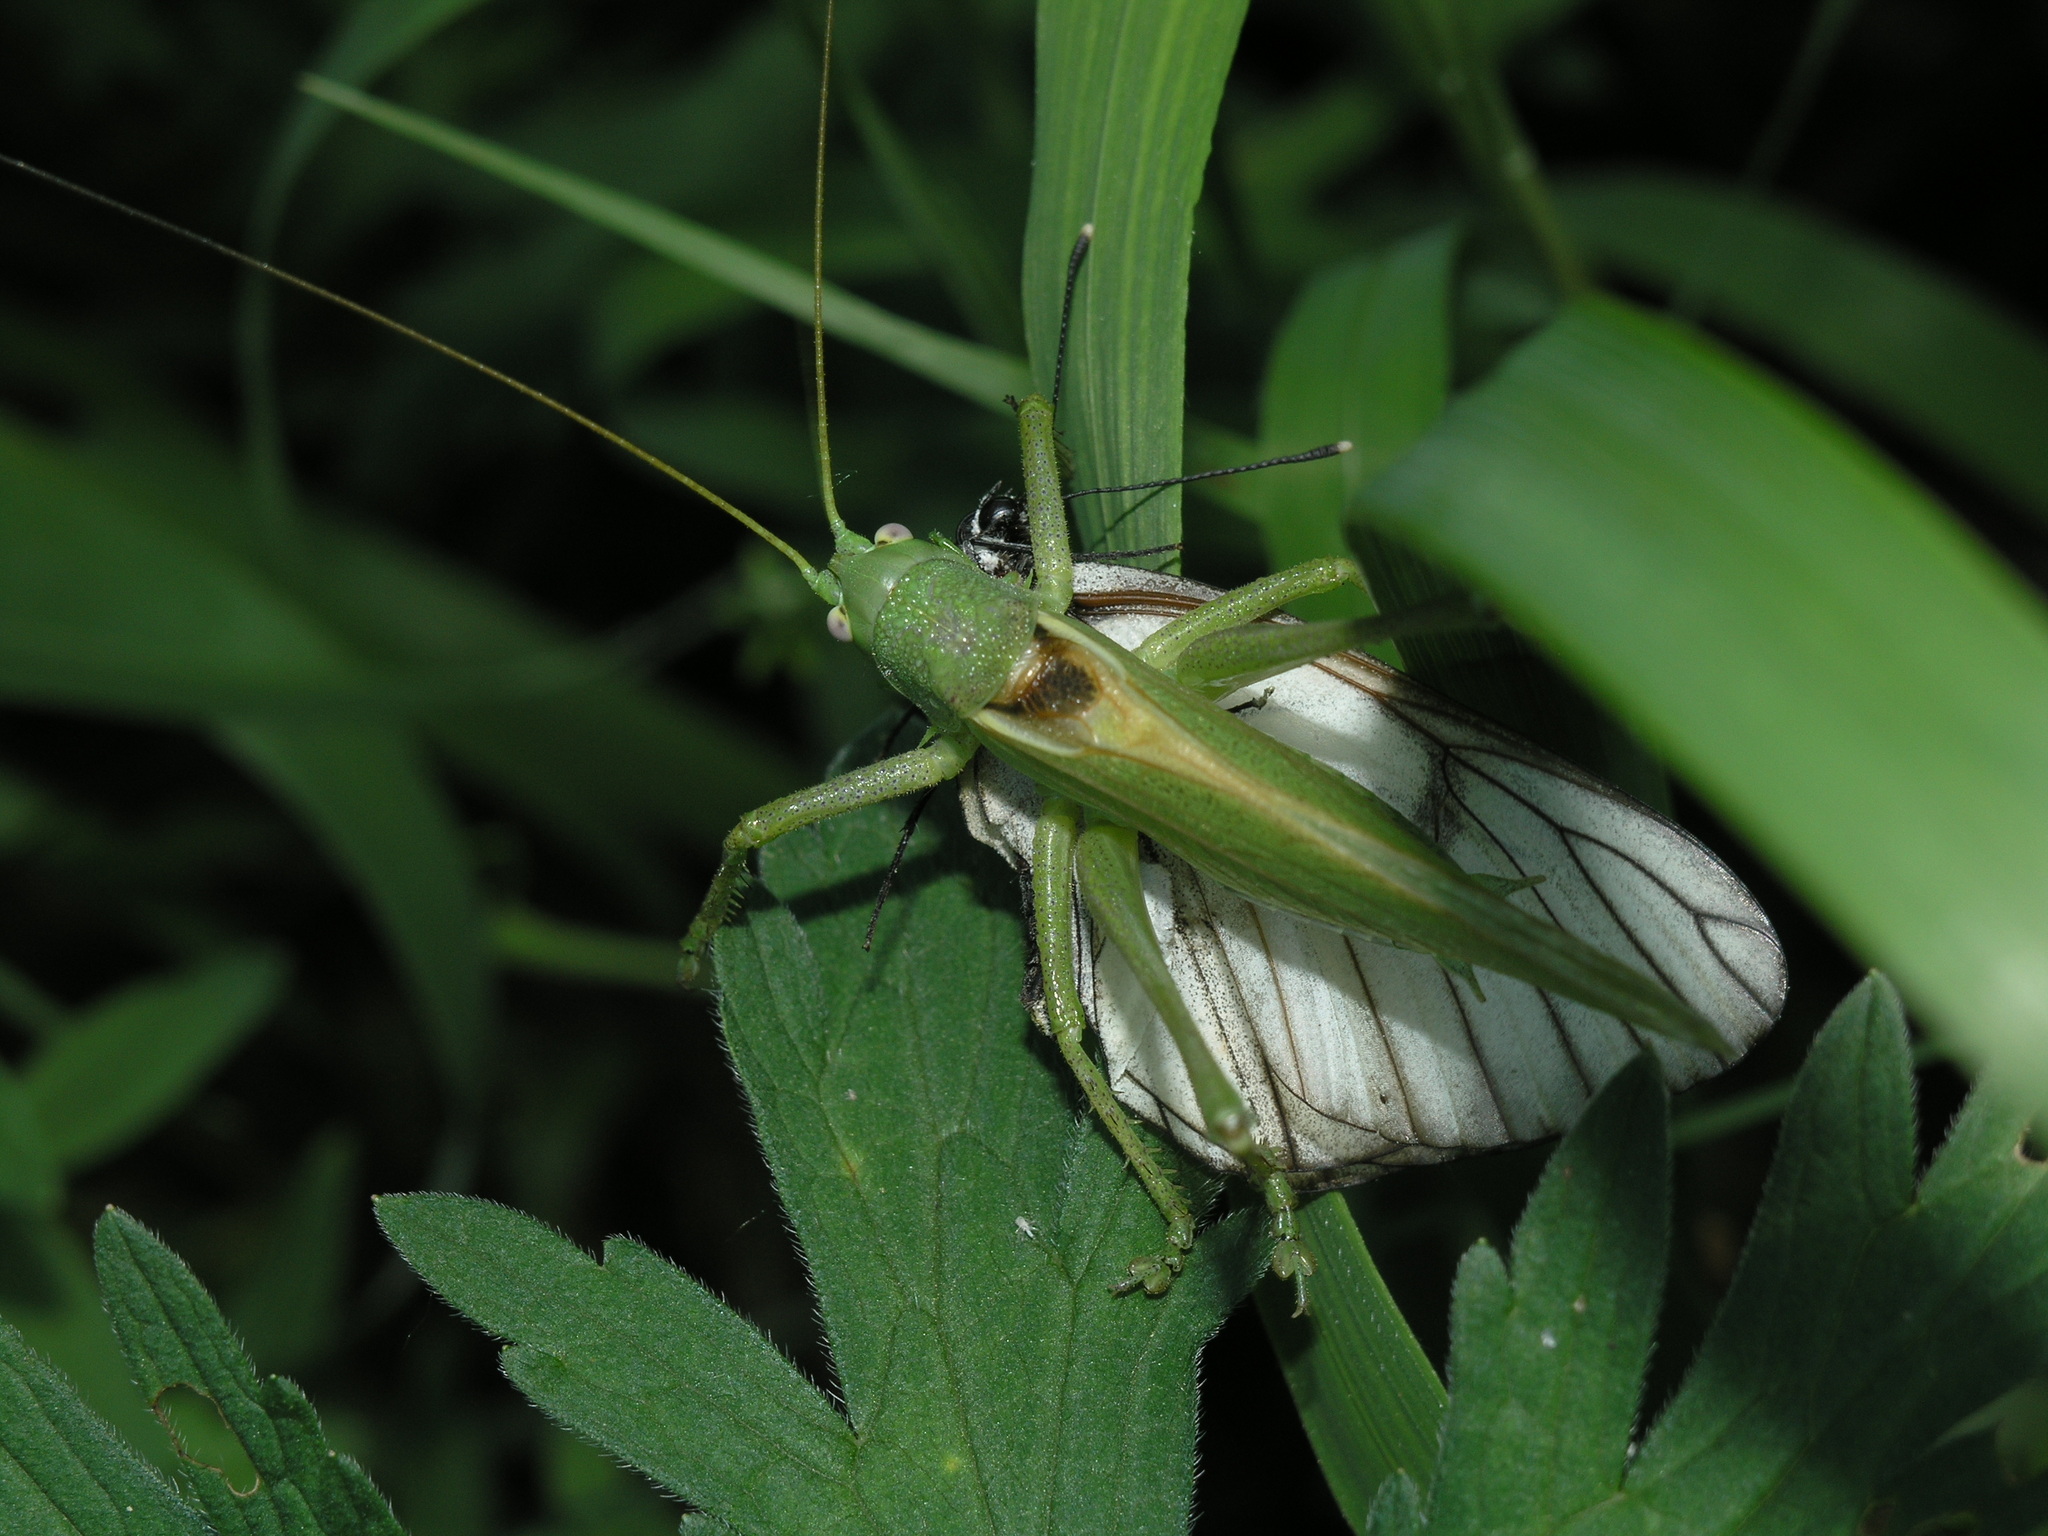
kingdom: Animalia
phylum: Arthropoda
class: Insecta
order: Orthoptera
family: Tettigoniidae
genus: Tettigonia
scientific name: Tettigonia caudata
